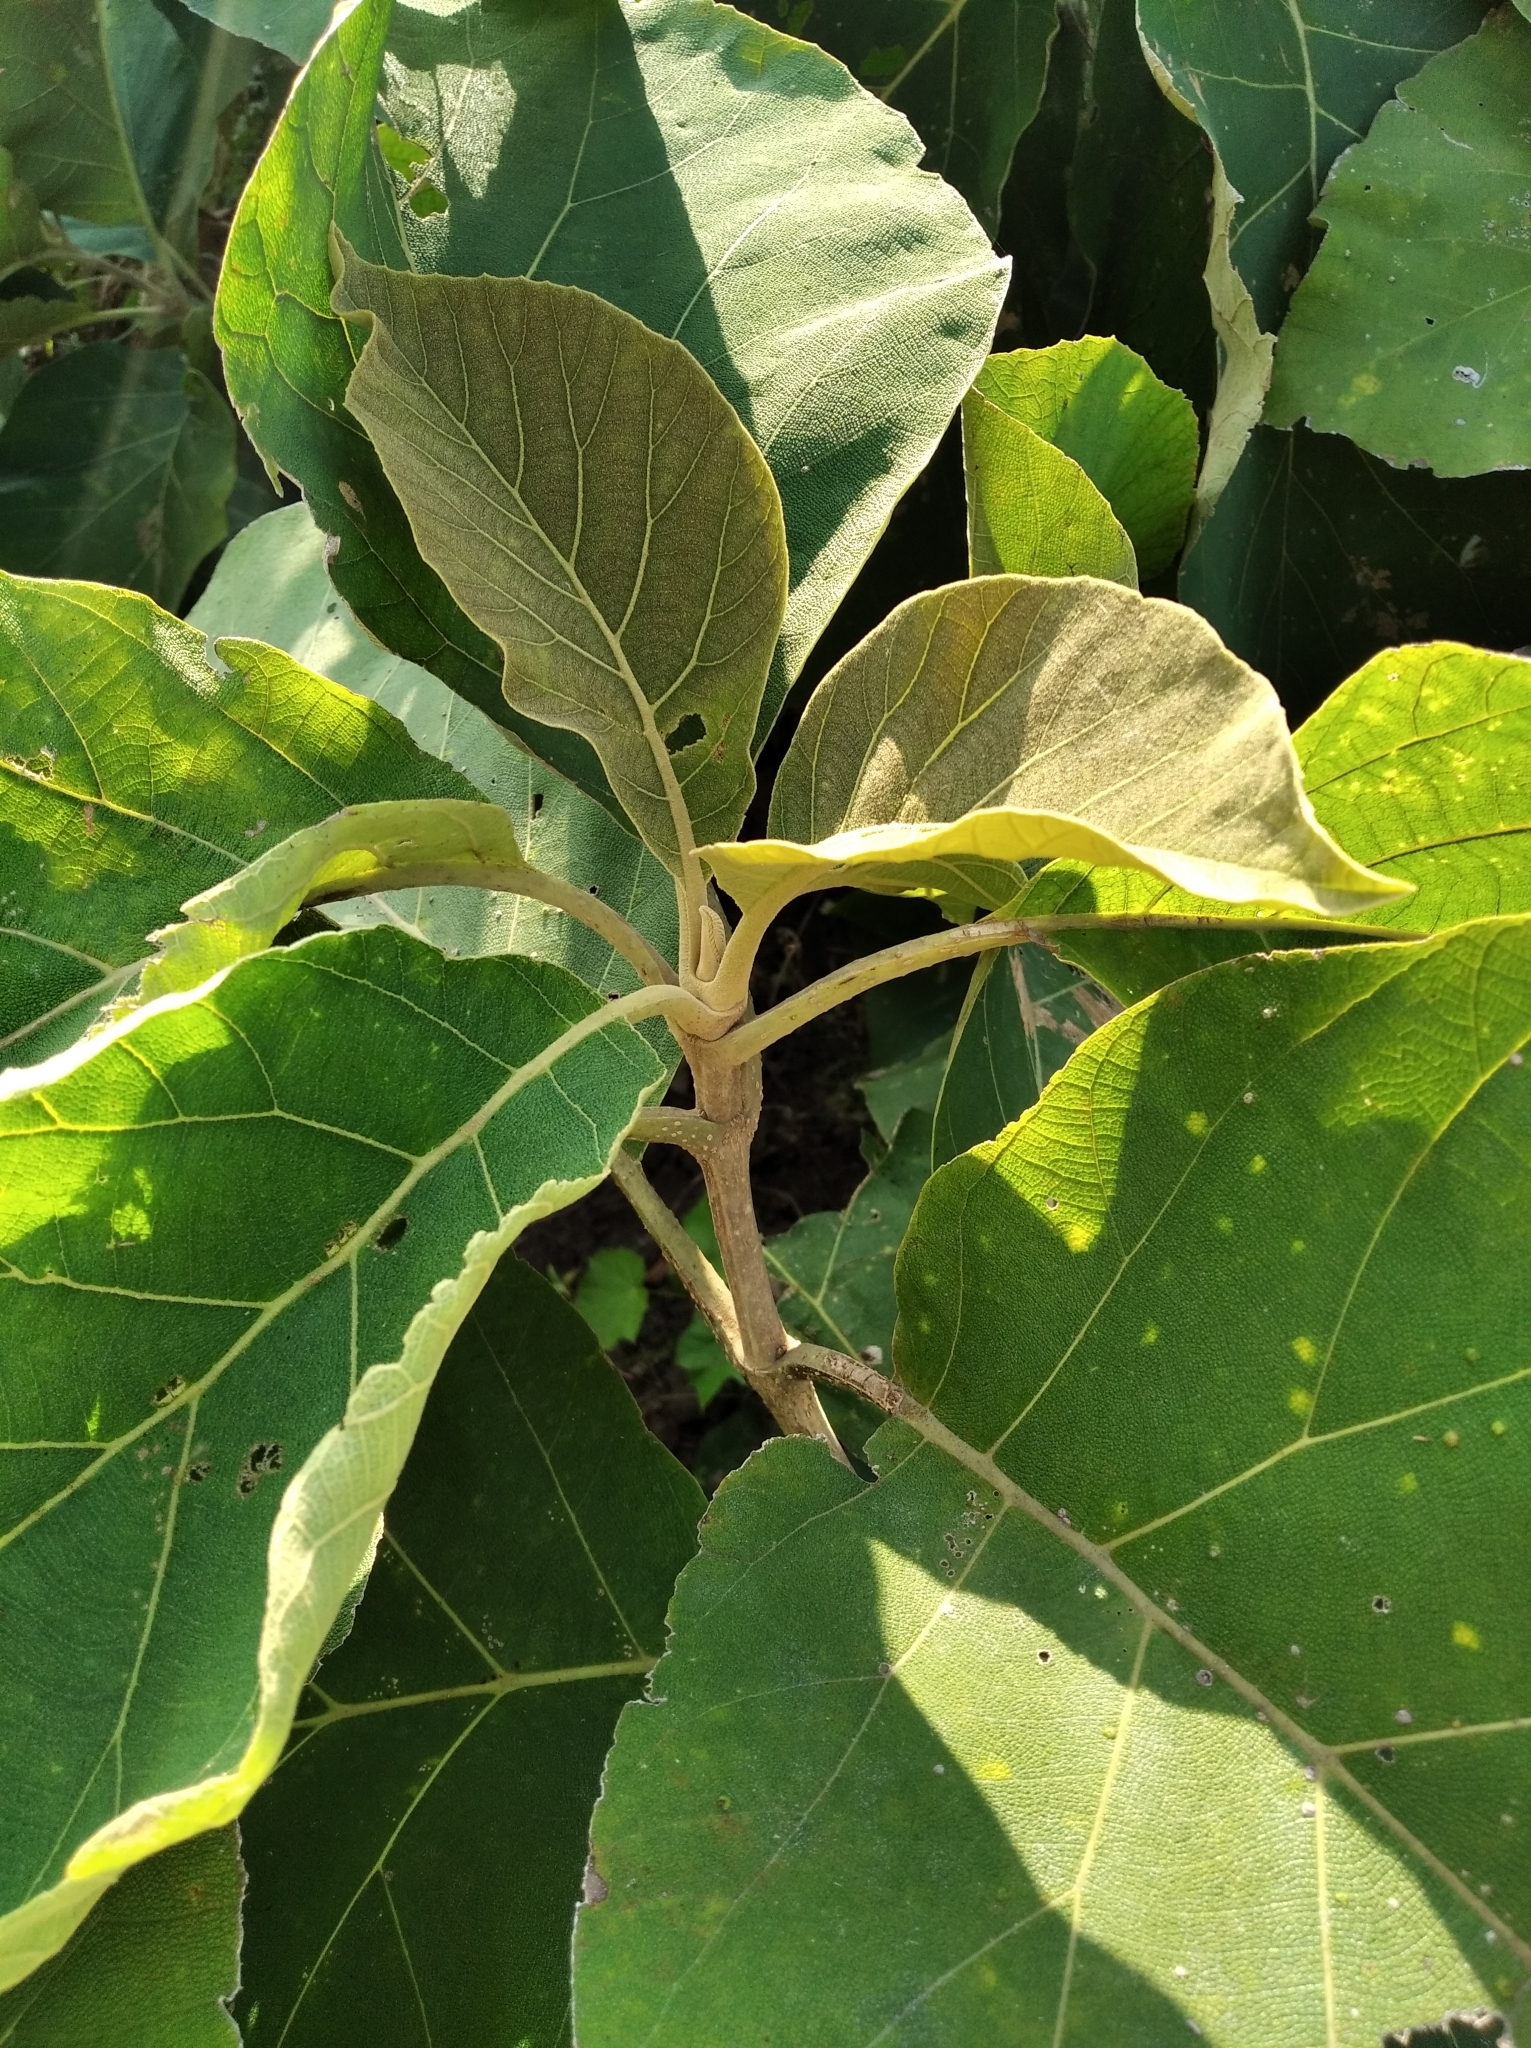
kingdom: Plantae
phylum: Tracheophyta
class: Magnoliopsida
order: Lamiales
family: Lamiaceae
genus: Tectona
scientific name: Tectona grandis
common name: Teak
